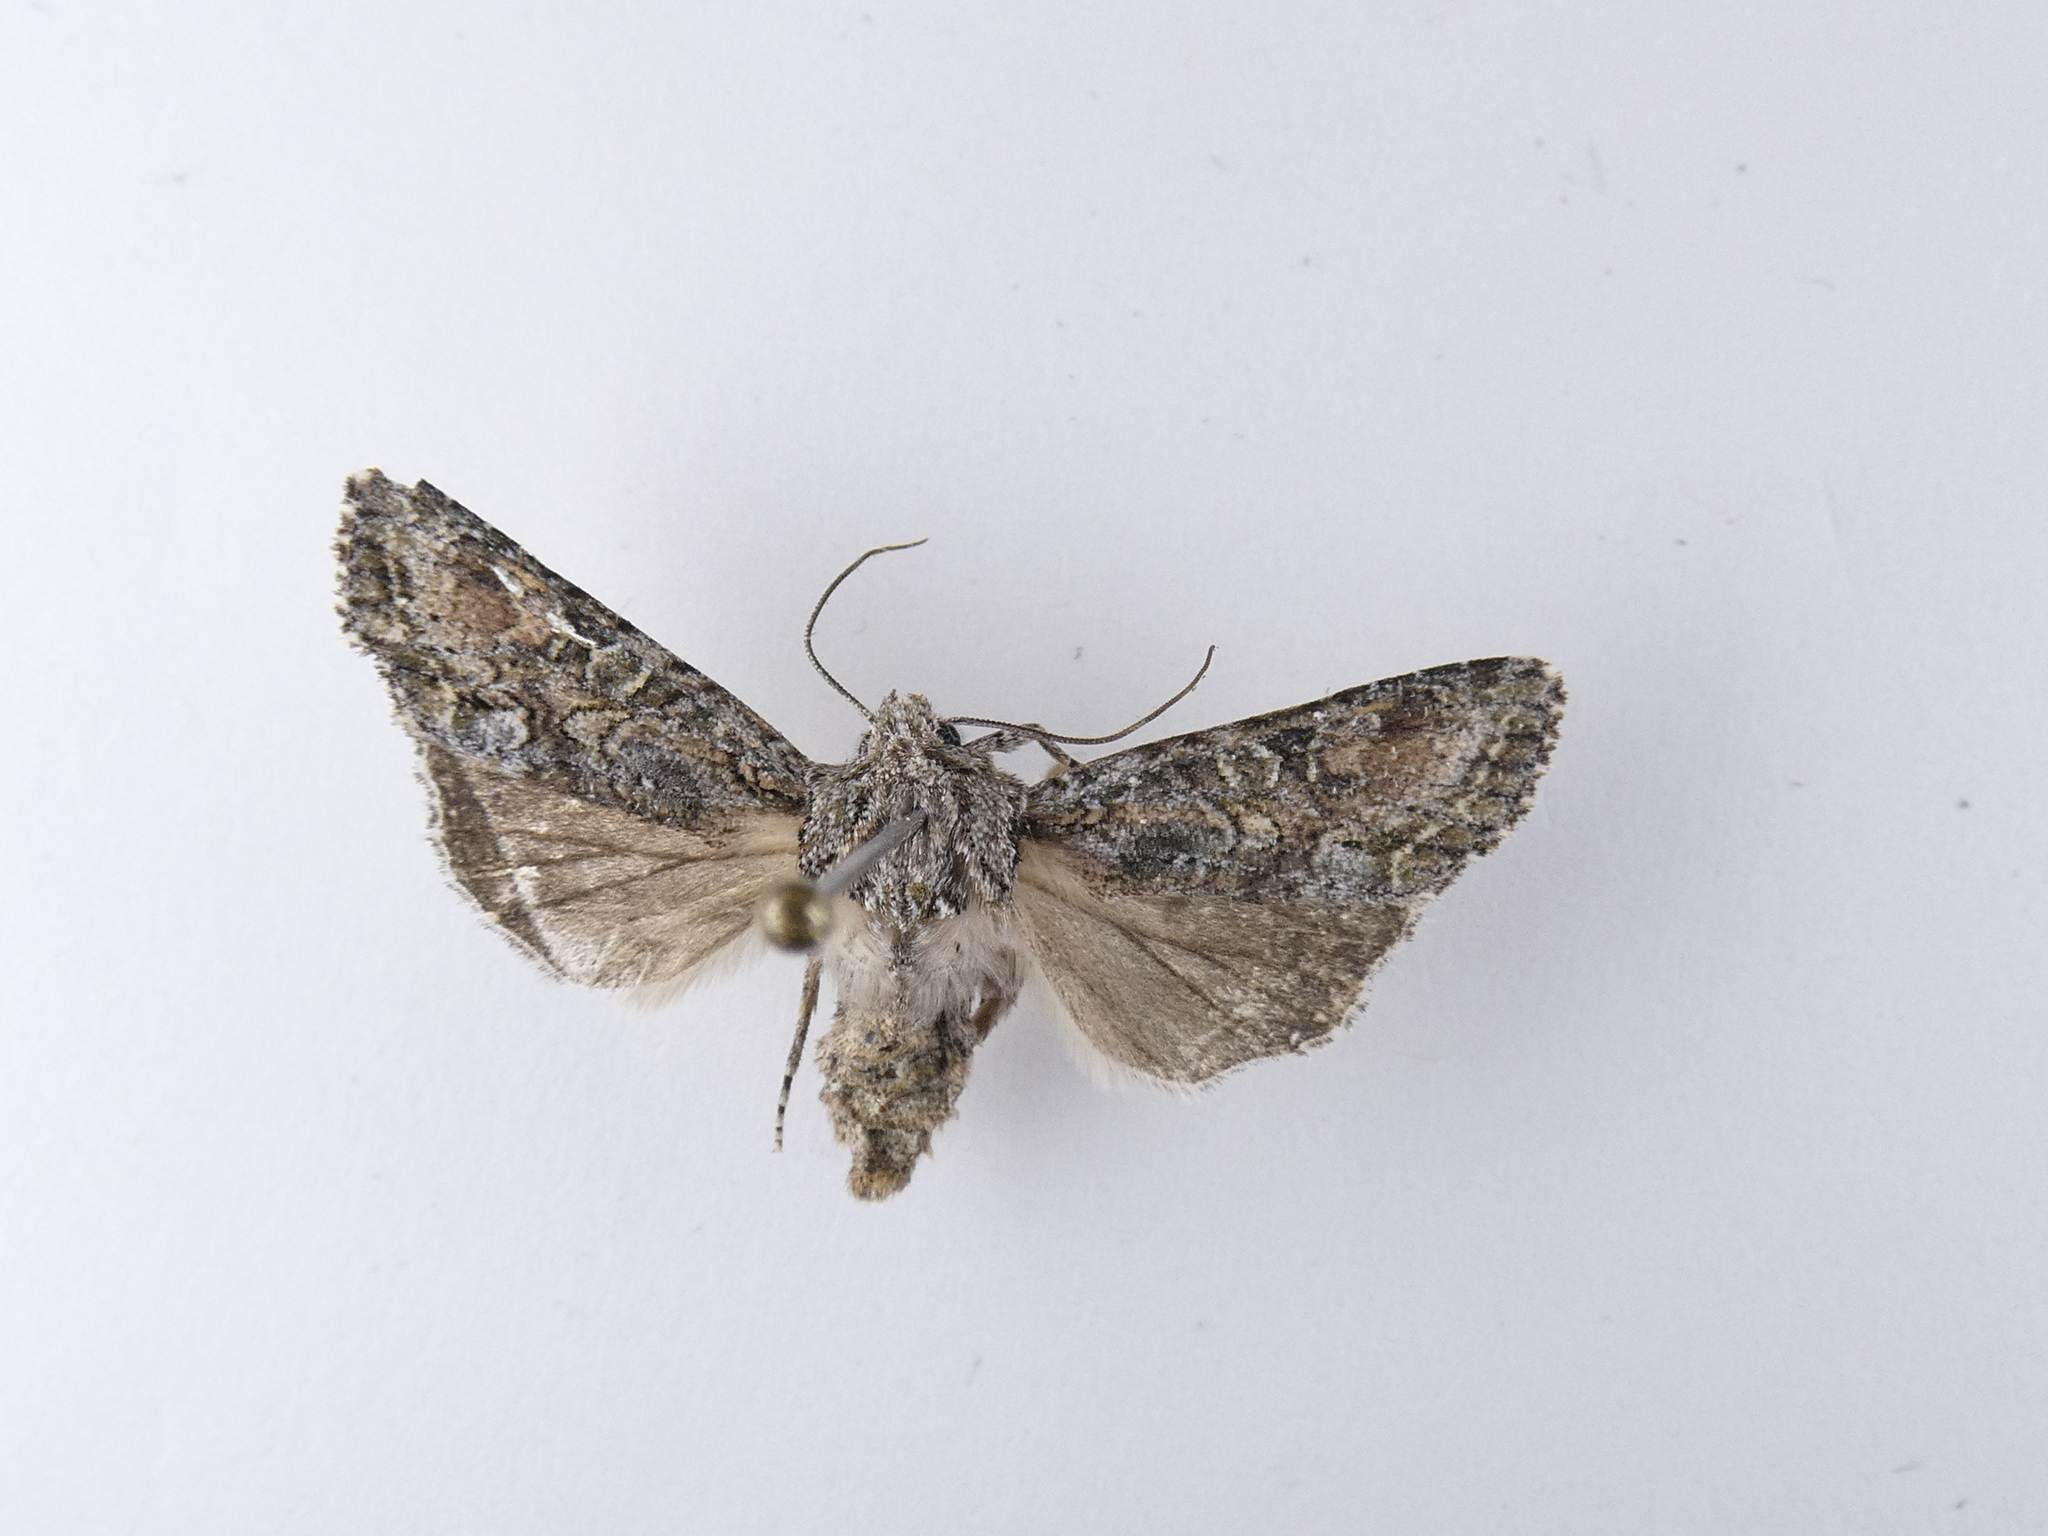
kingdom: Animalia
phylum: Arthropoda
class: Insecta
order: Lepidoptera
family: Noctuidae
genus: Ichneutica
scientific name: Ichneutica mutans
